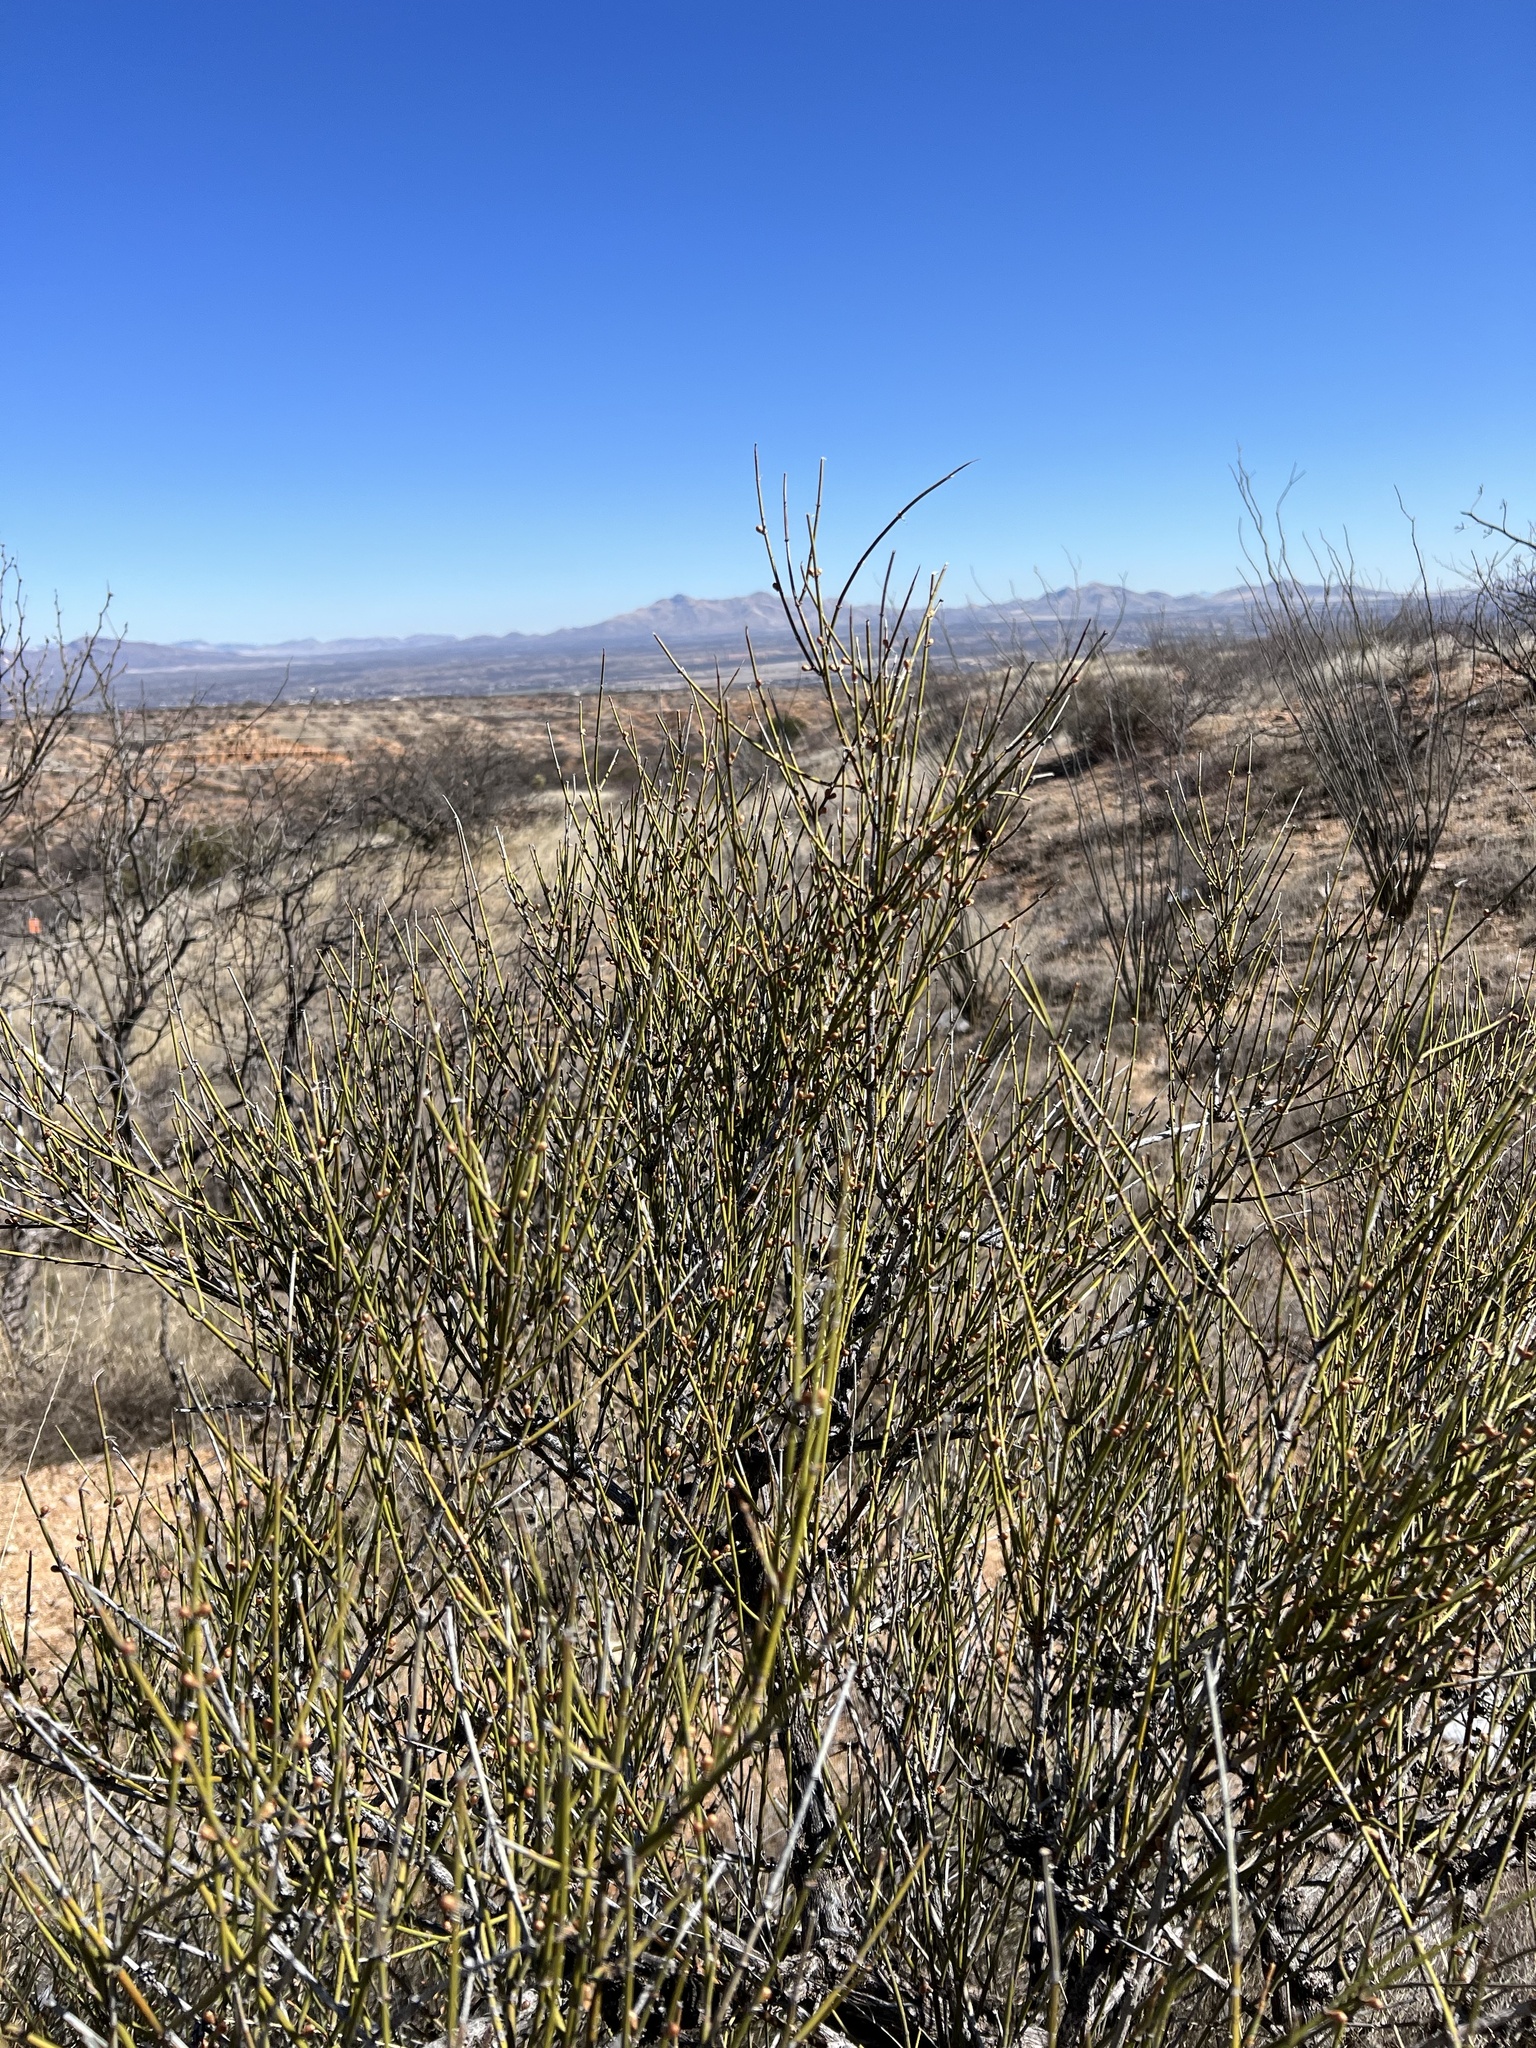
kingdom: Plantae
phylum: Tracheophyta
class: Gnetopsida
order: Ephedrales
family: Ephedraceae
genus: Ephedra
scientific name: Ephedra trifurca
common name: Mexican-tea
